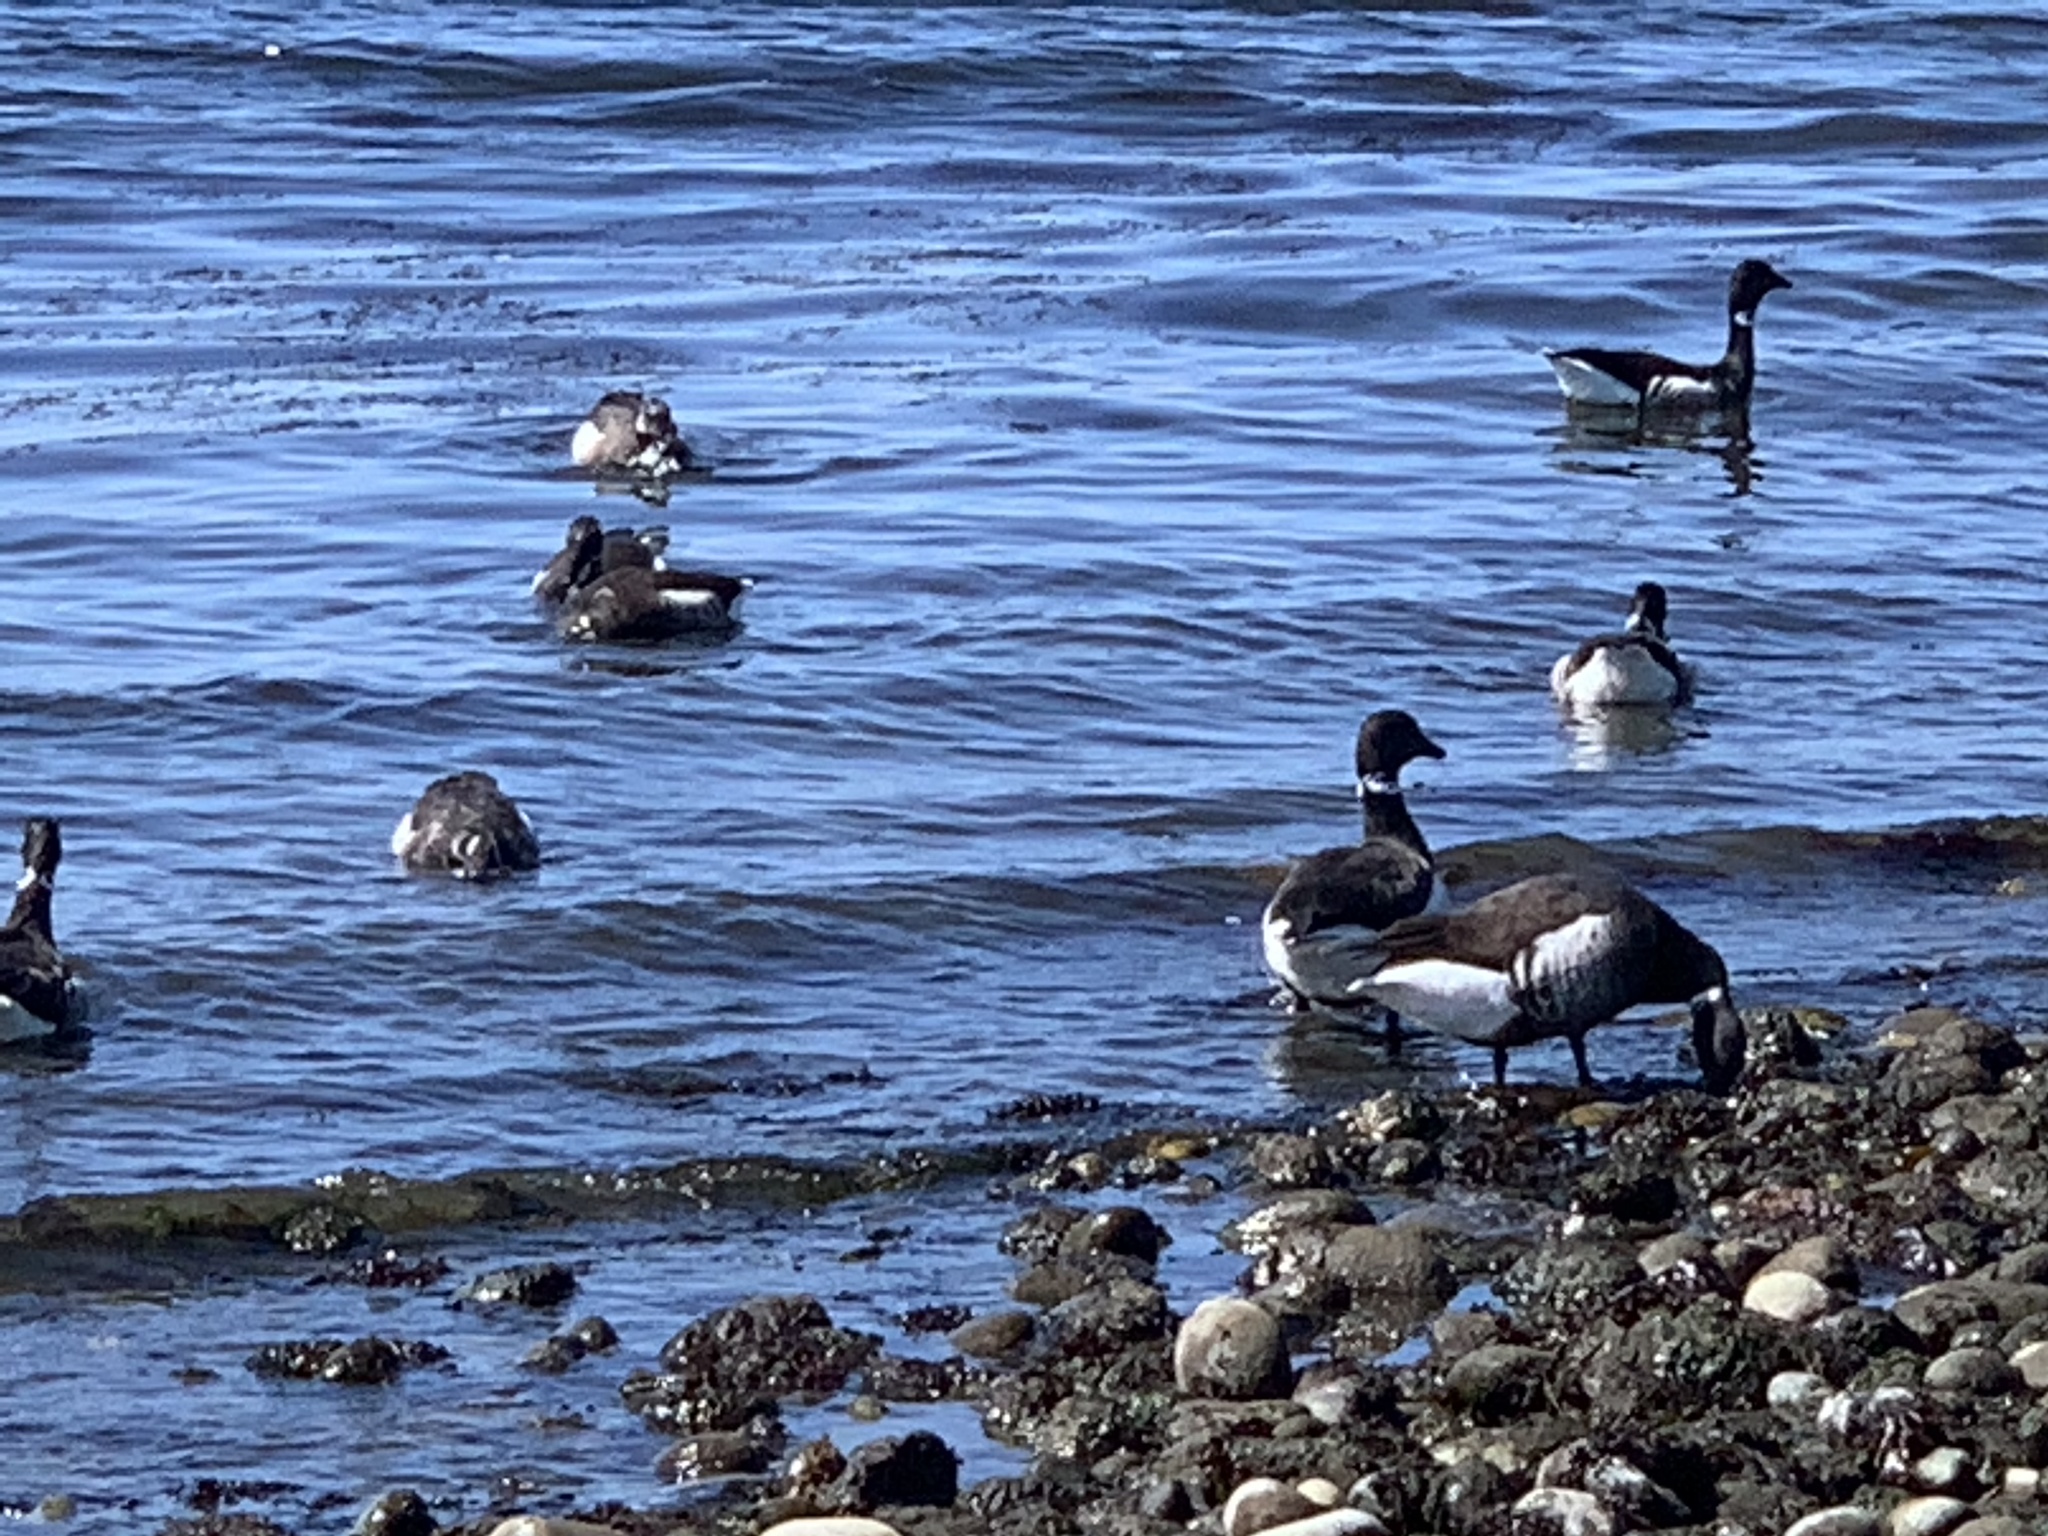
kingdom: Animalia
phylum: Chordata
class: Aves
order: Anseriformes
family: Anatidae
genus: Branta
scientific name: Branta bernicla
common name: Brant goose
